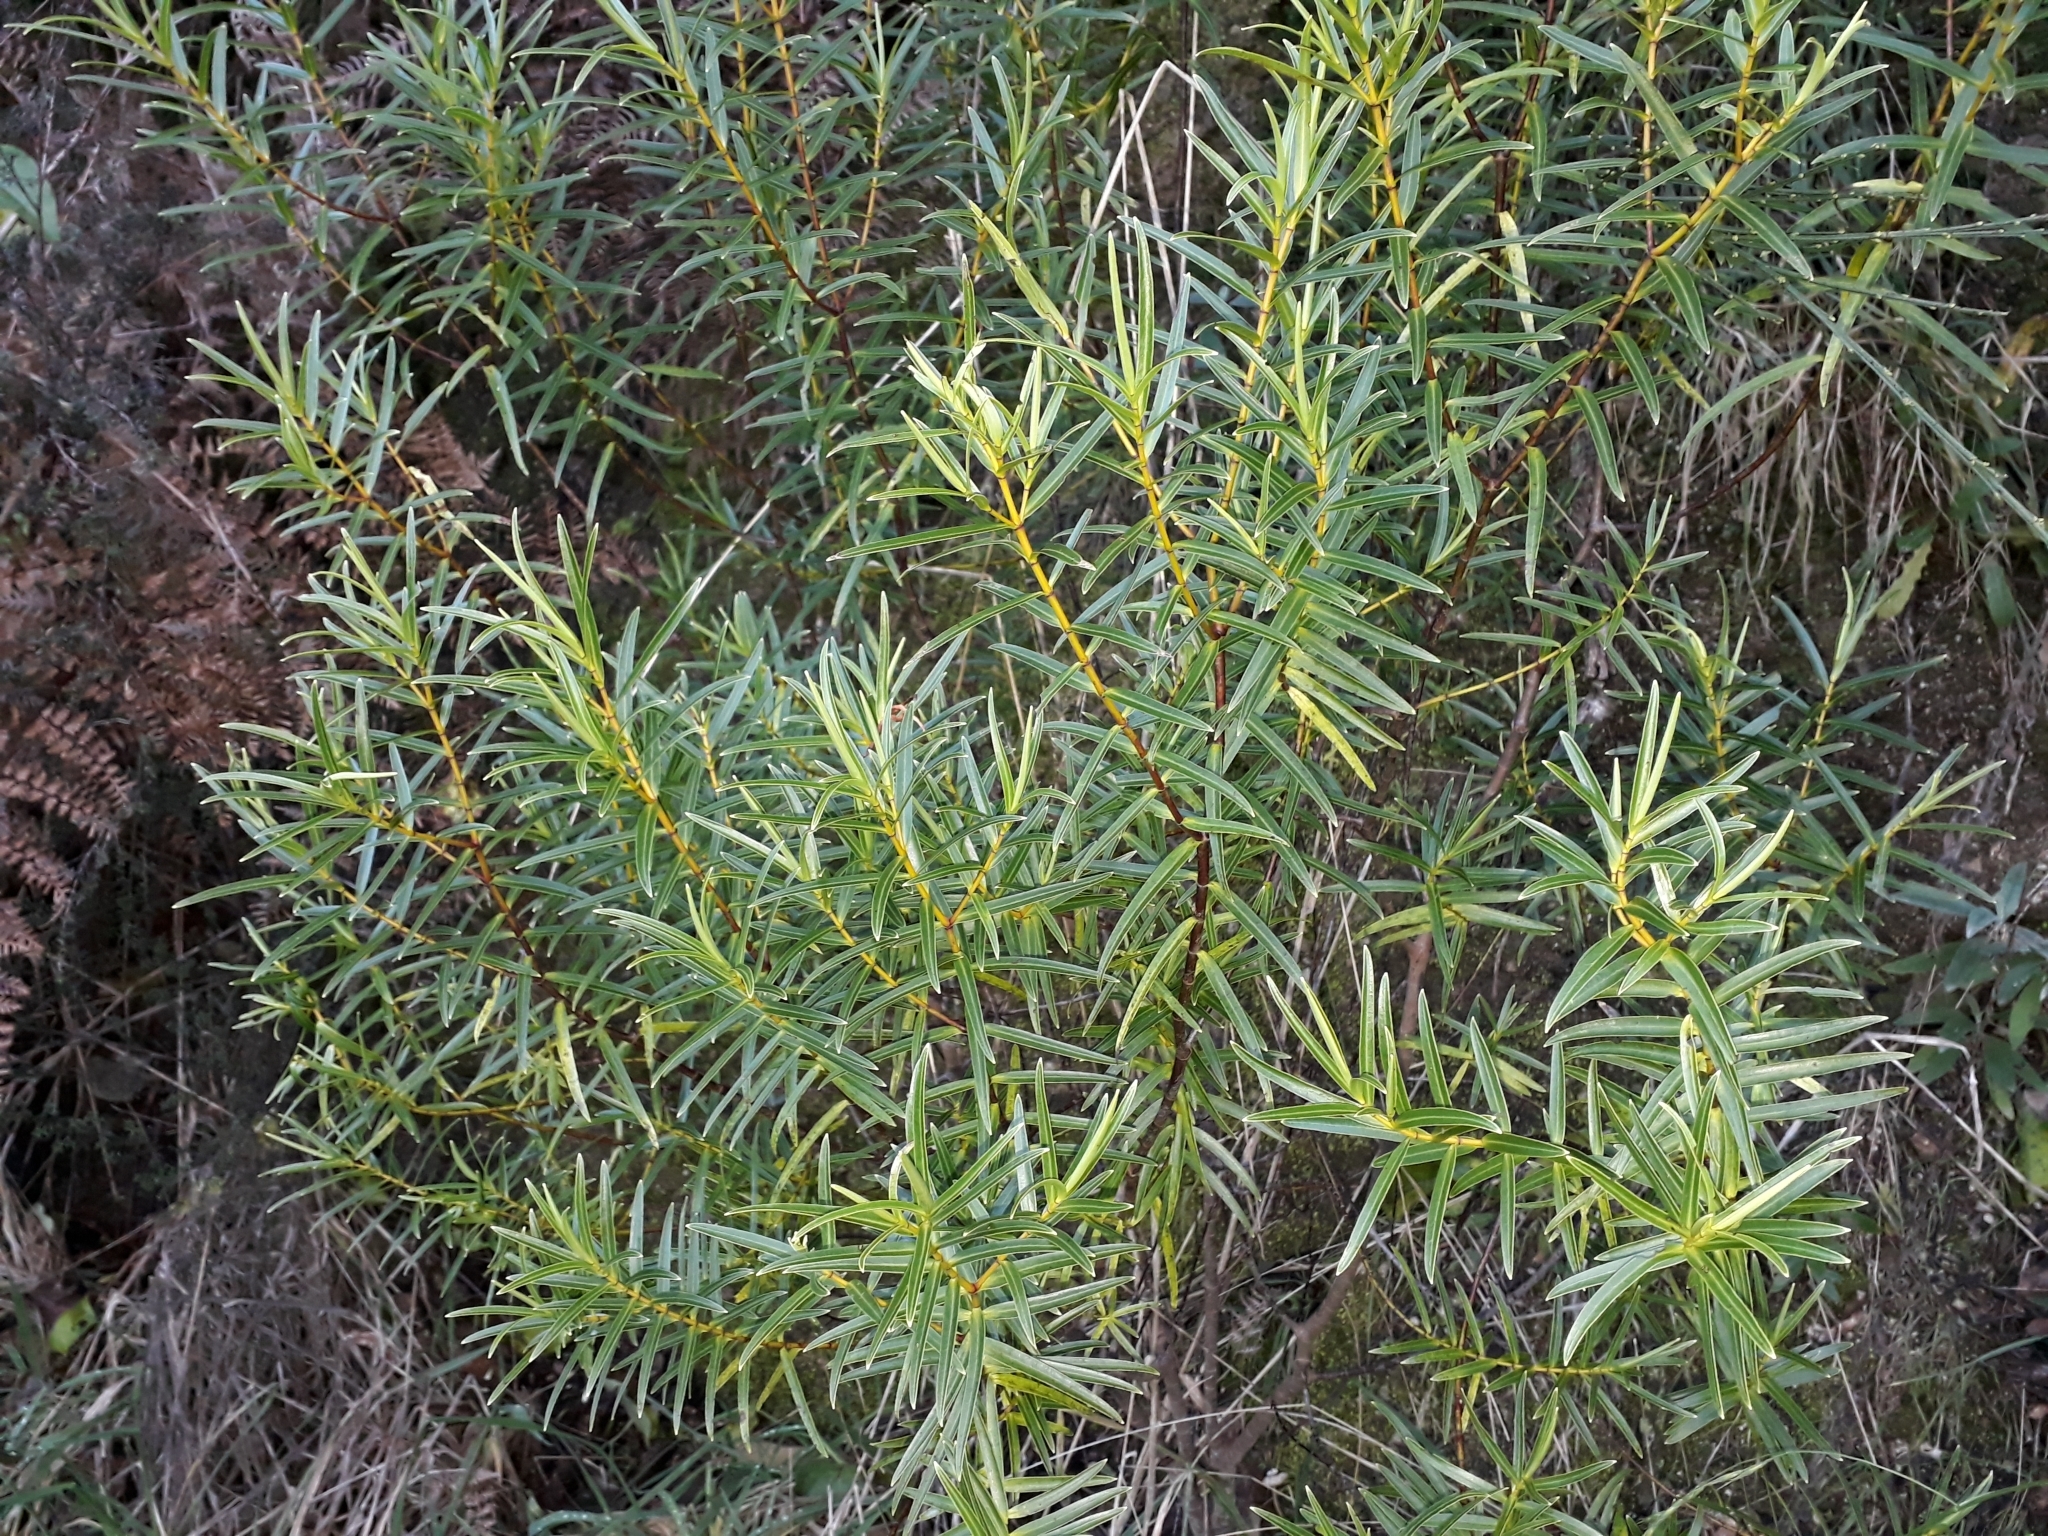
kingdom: Plantae
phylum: Tracheophyta
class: Magnoliopsida
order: Lamiales
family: Plantaginaceae
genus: Veronica
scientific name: Veronica parviflora
